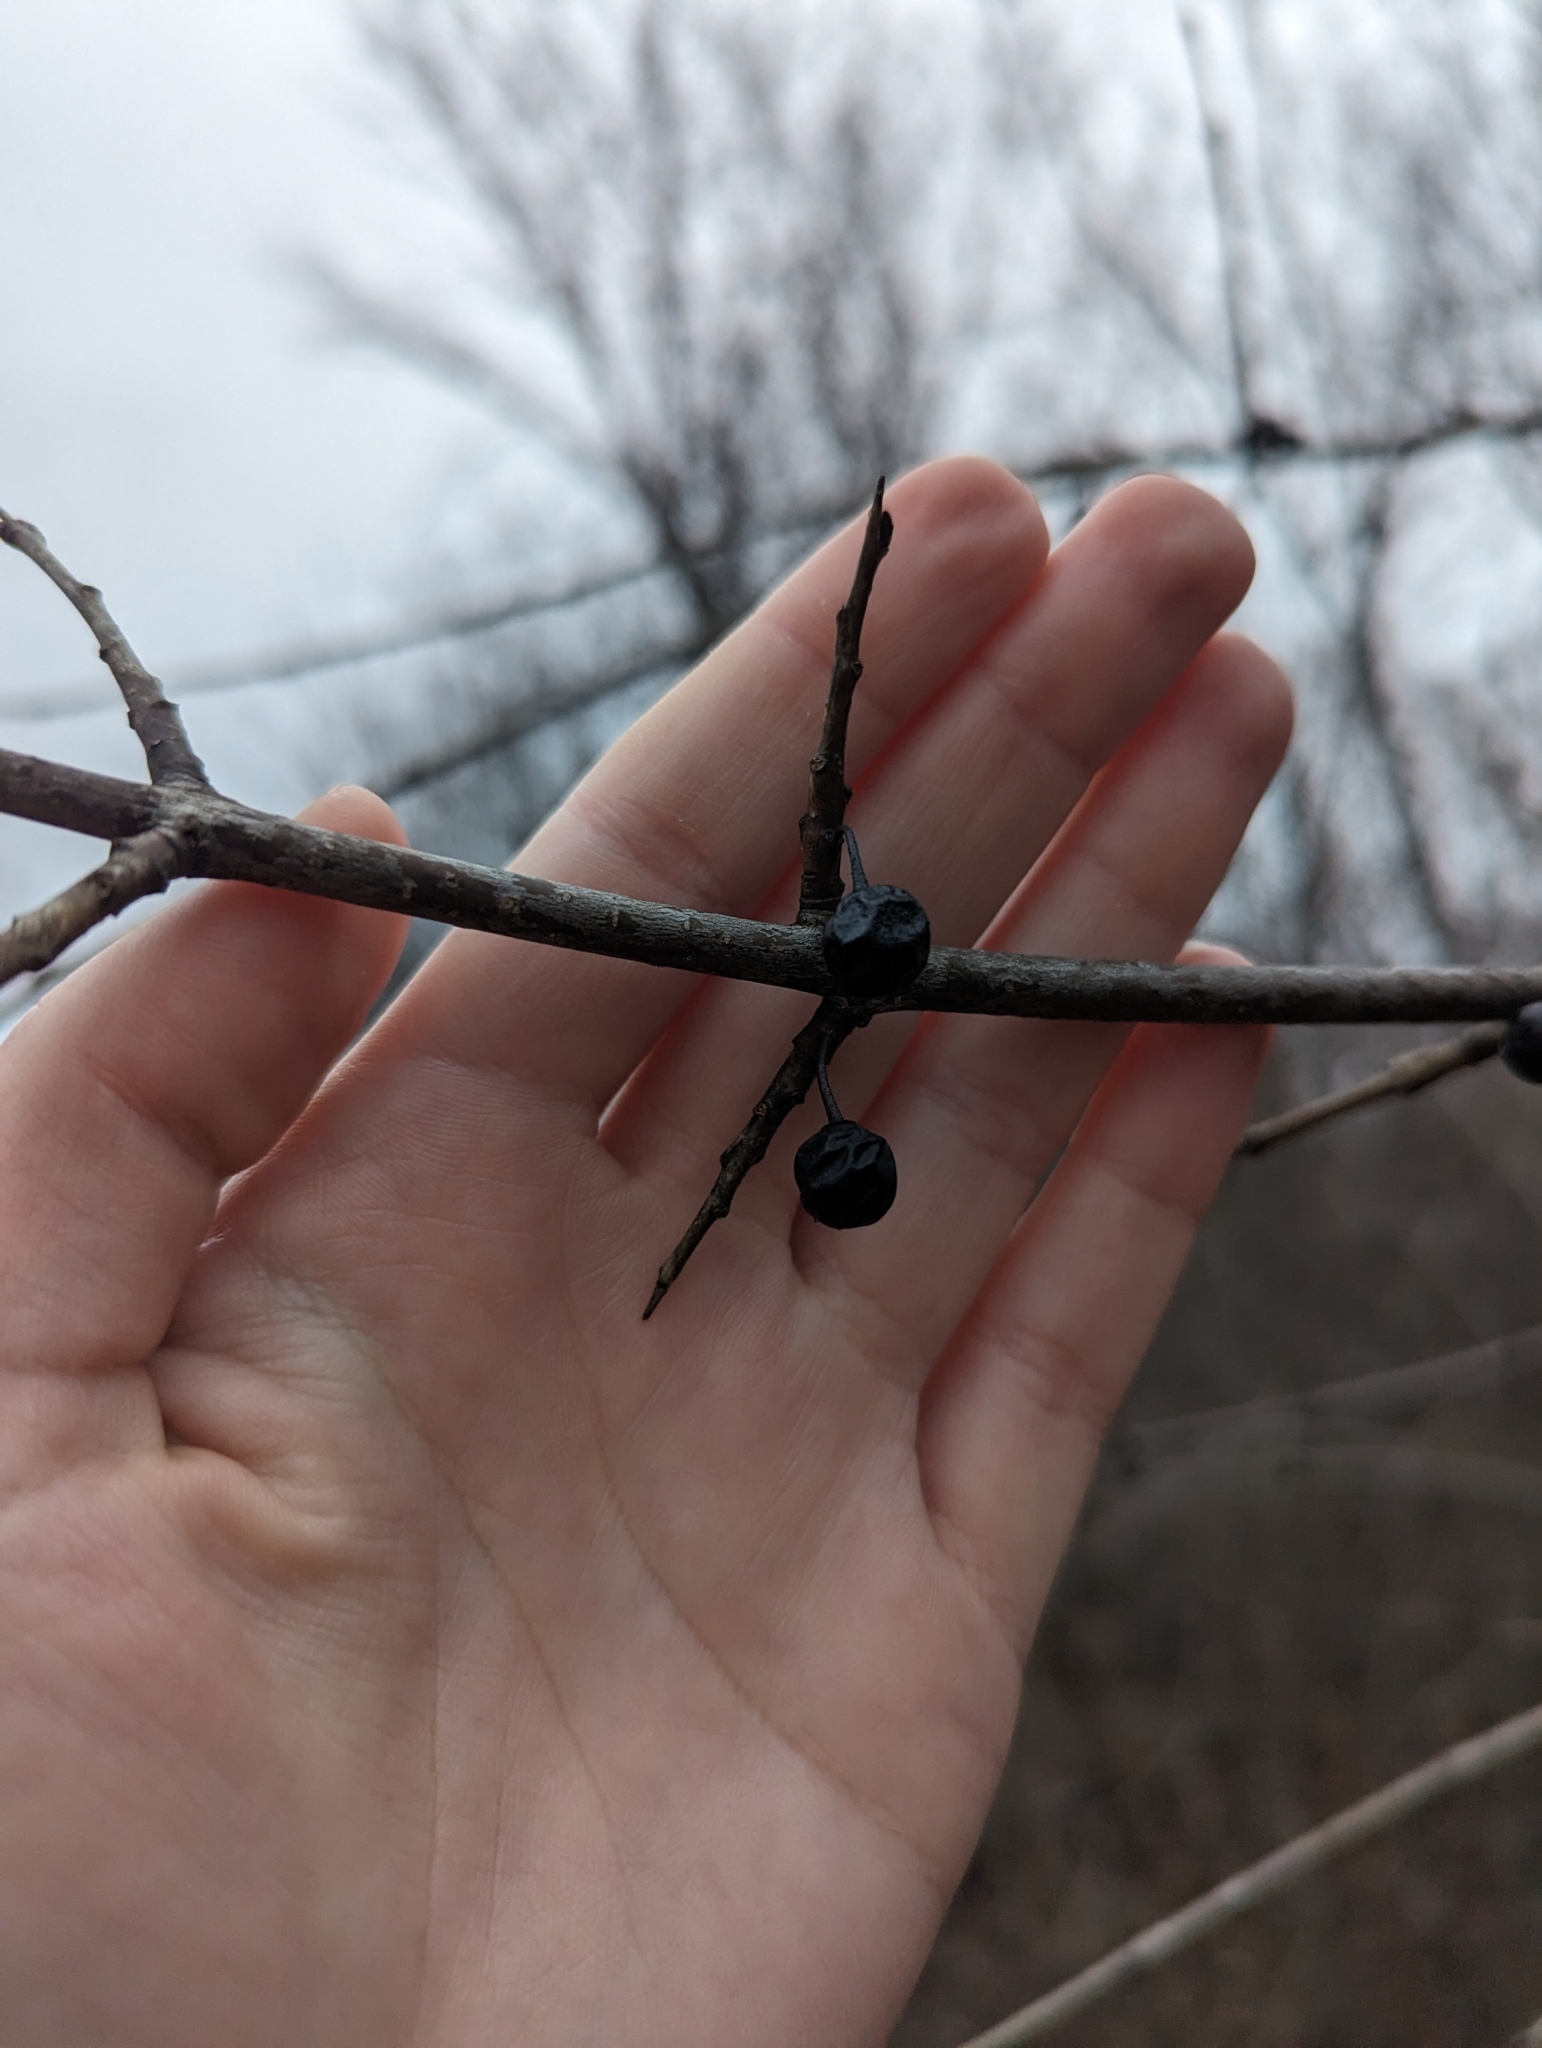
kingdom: Plantae
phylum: Tracheophyta
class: Magnoliopsida
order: Rosales
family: Rhamnaceae
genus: Rhamnus
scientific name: Rhamnus cathartica
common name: Common buckthorn
